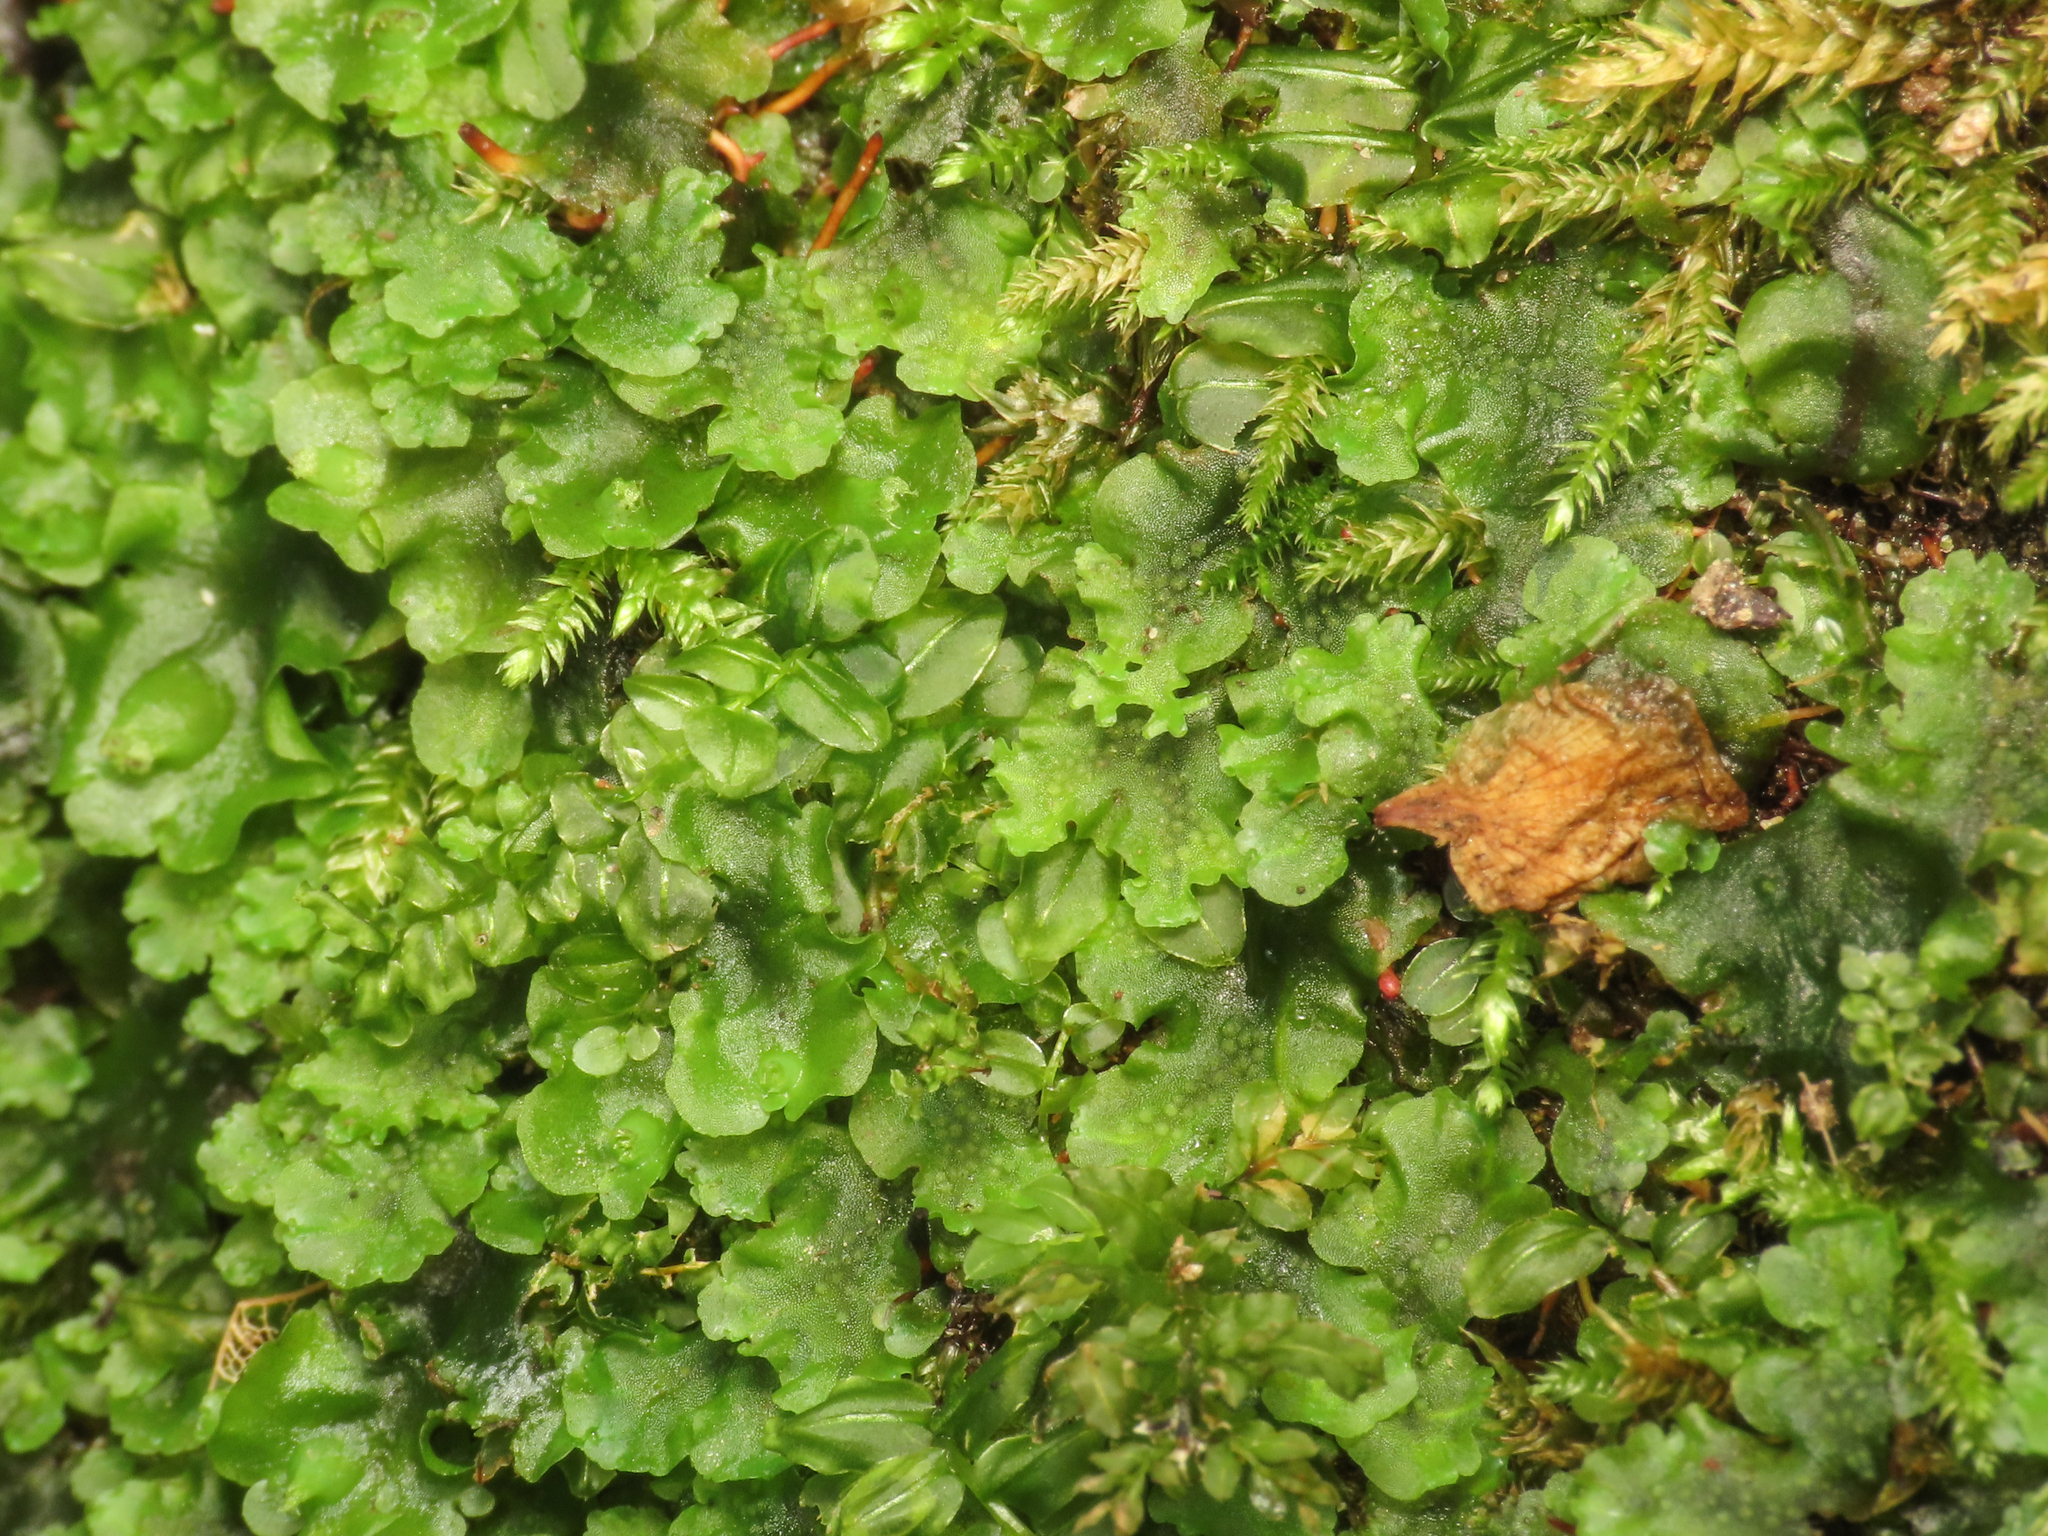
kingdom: Plantae
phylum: Marchantiophyta
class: Jungermanniopsida
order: Pelliales
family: Pelliaceae
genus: Apopellia
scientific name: Apopellia endiviifolia
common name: Endive pellia
